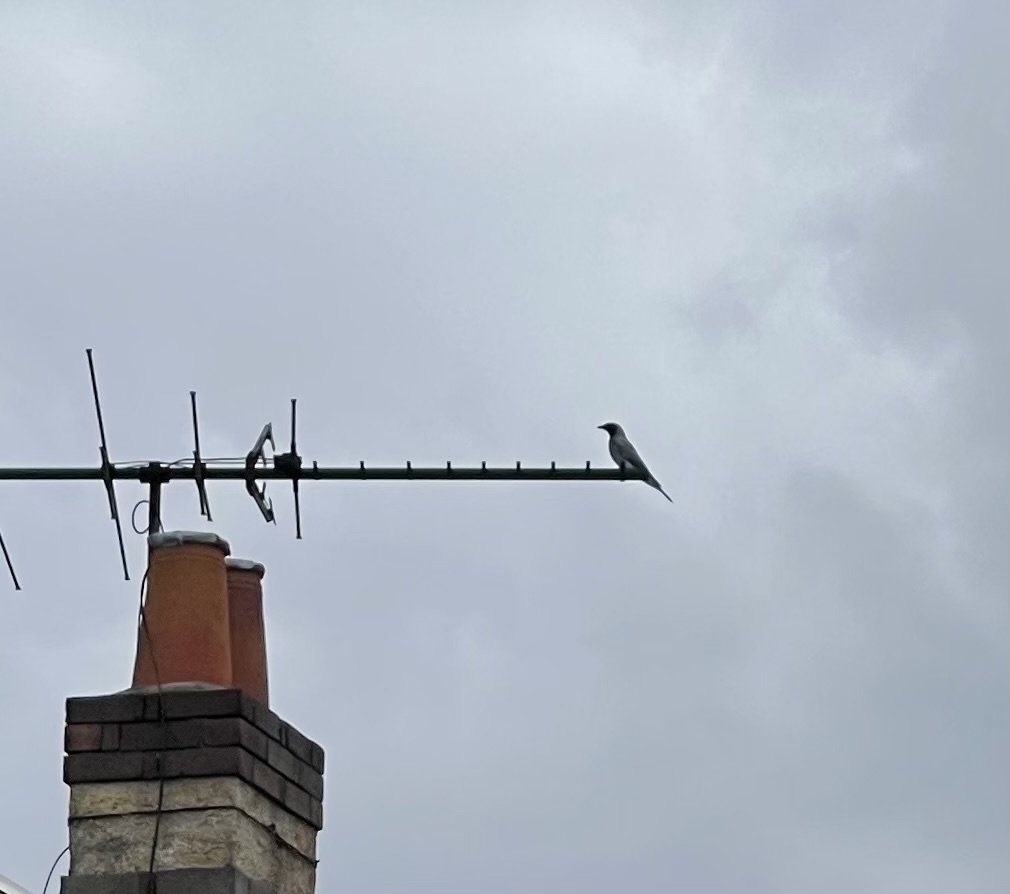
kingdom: Animalia
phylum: Chordata
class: Aves
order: Passeriformes
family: Campephagidae
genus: Coracina
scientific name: Coracina novaehollandiae
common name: Black-faced cuckooshrike
